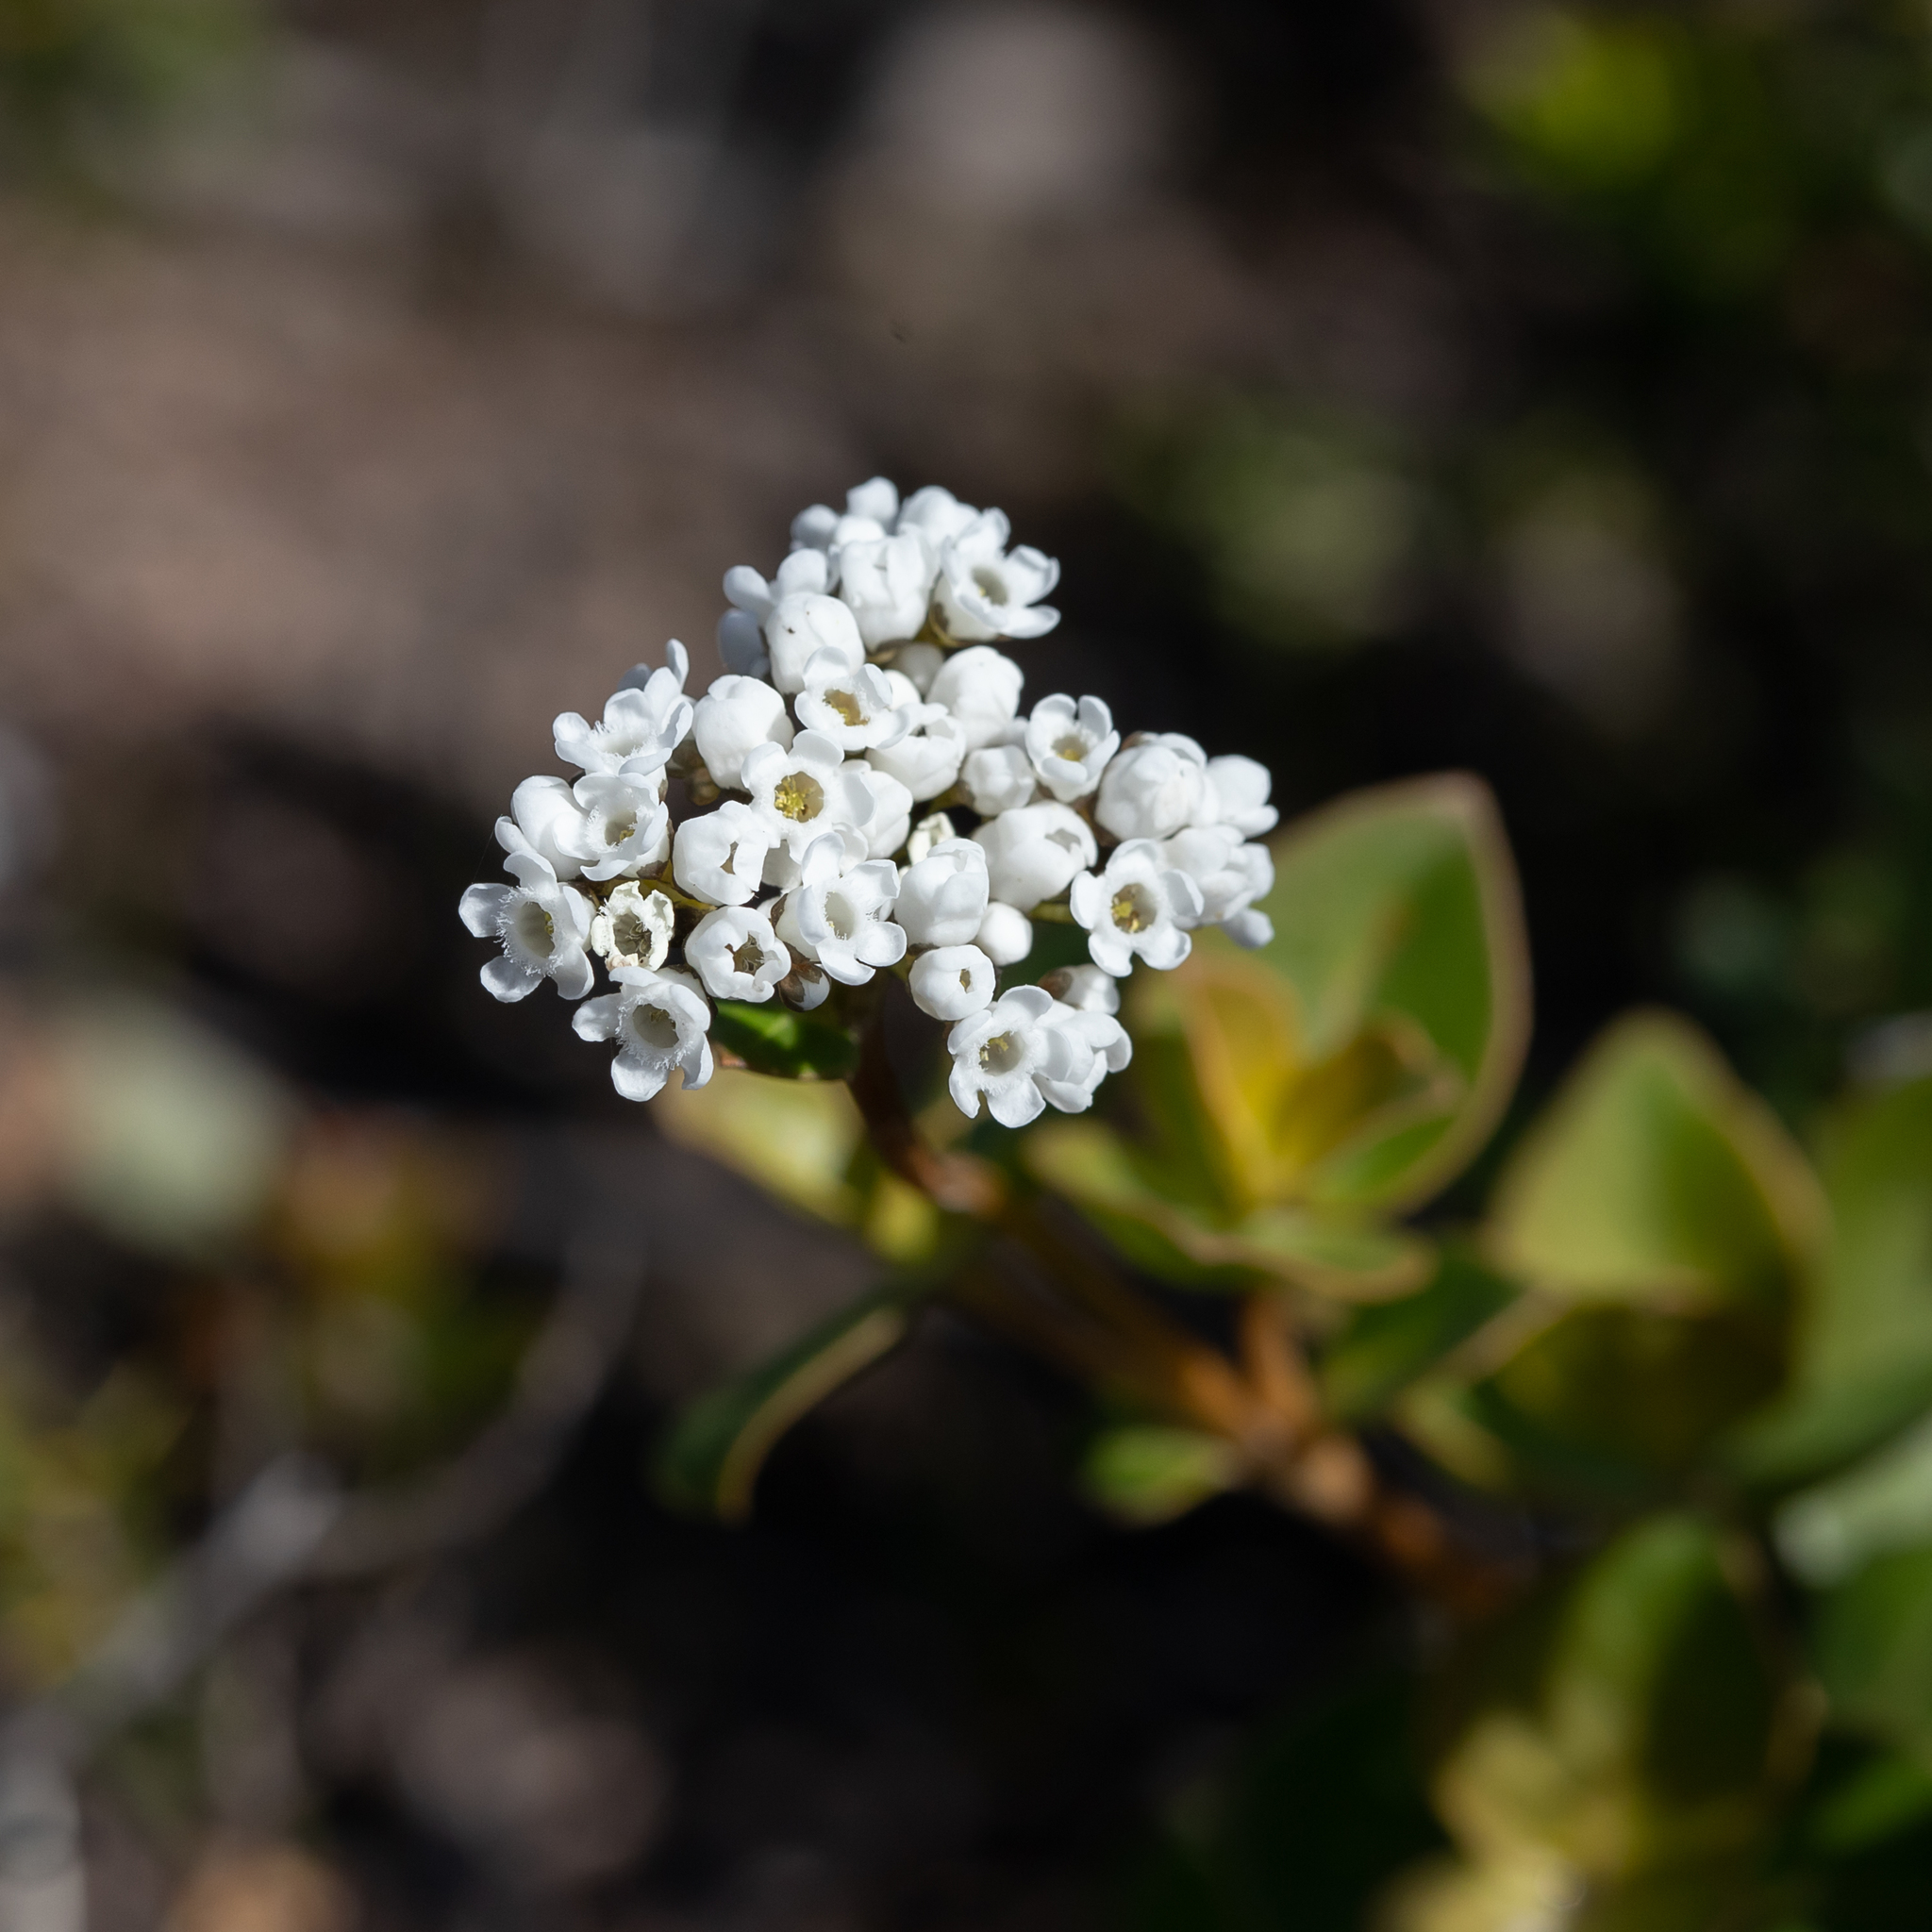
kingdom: Plantae
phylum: Tracheophyta
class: Magnoliopsida
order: Gentianales
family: Loganiaceae
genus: Logania
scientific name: Logania ovata
